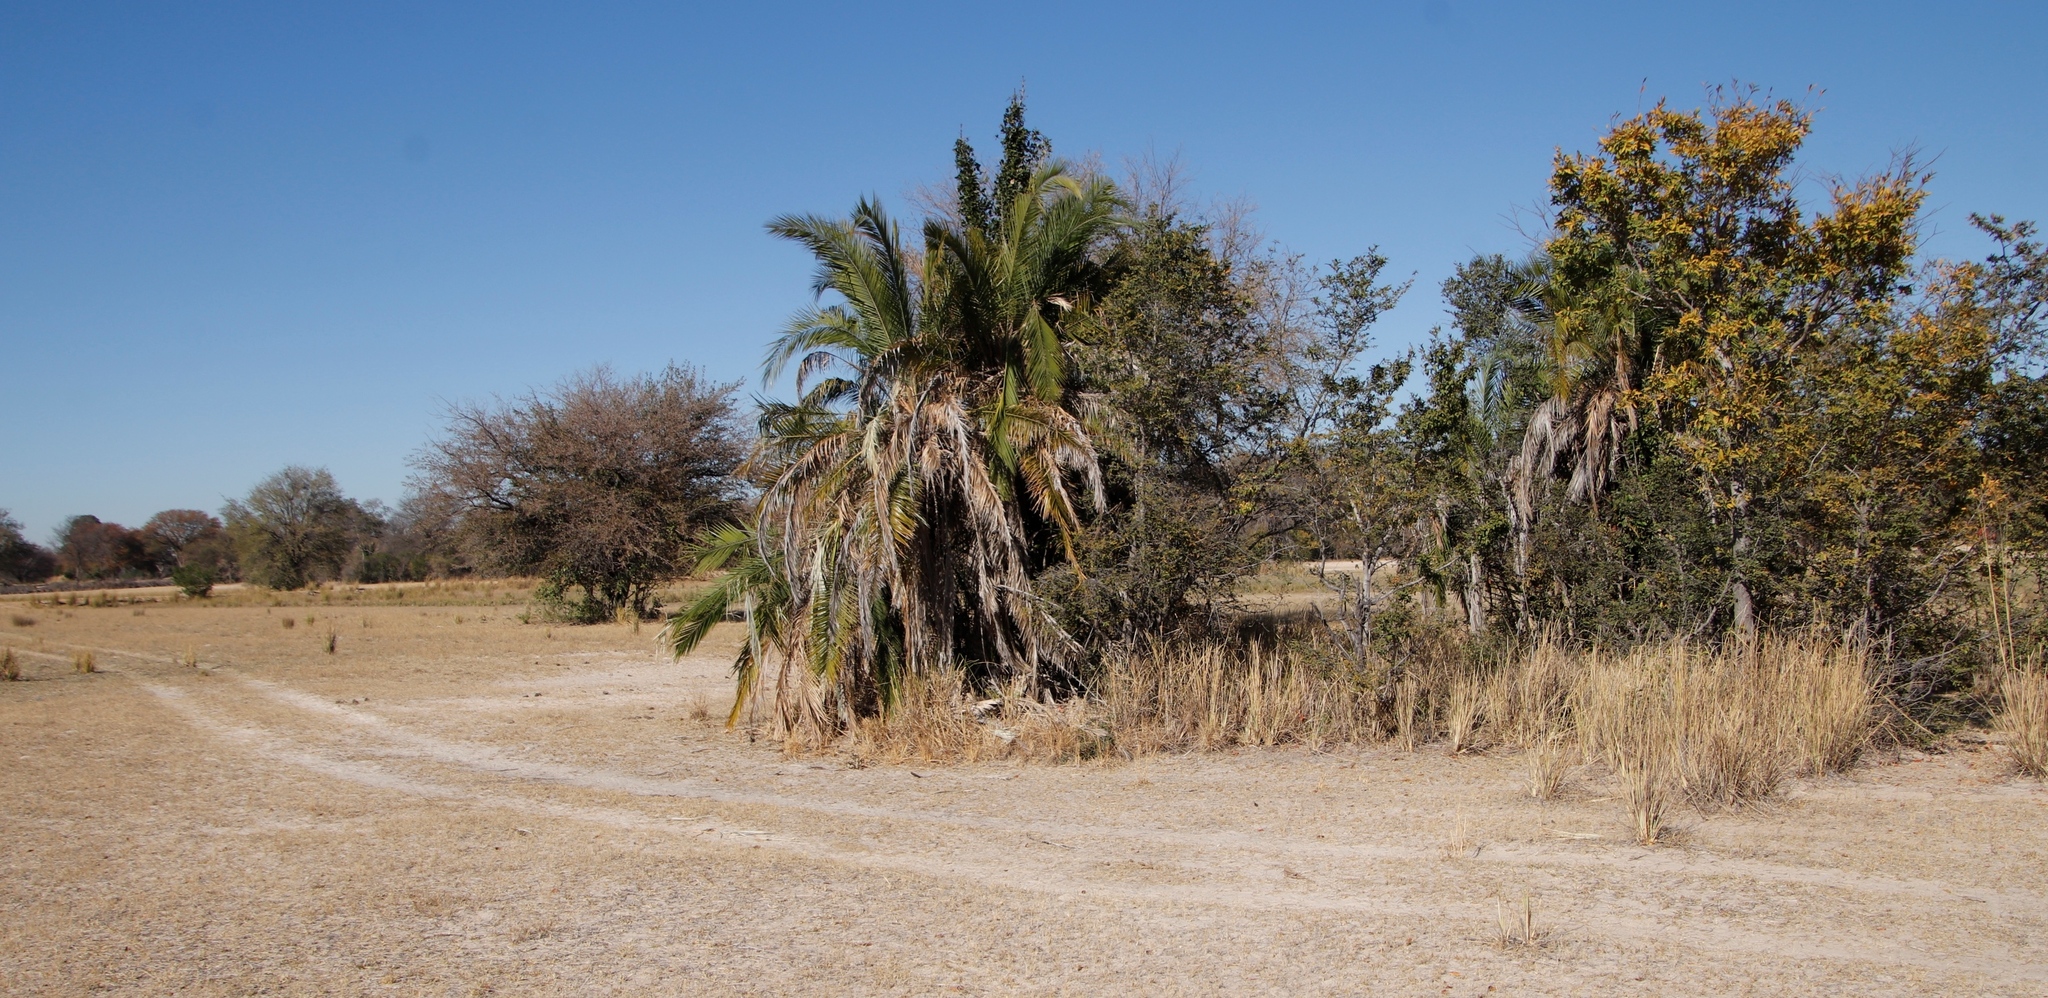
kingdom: Plantae
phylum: Tracheophyta
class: Liliopsida
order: Arecales
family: Arecaceae
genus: Phoenix
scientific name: Phoenix reclinata
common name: Senegal date palm
